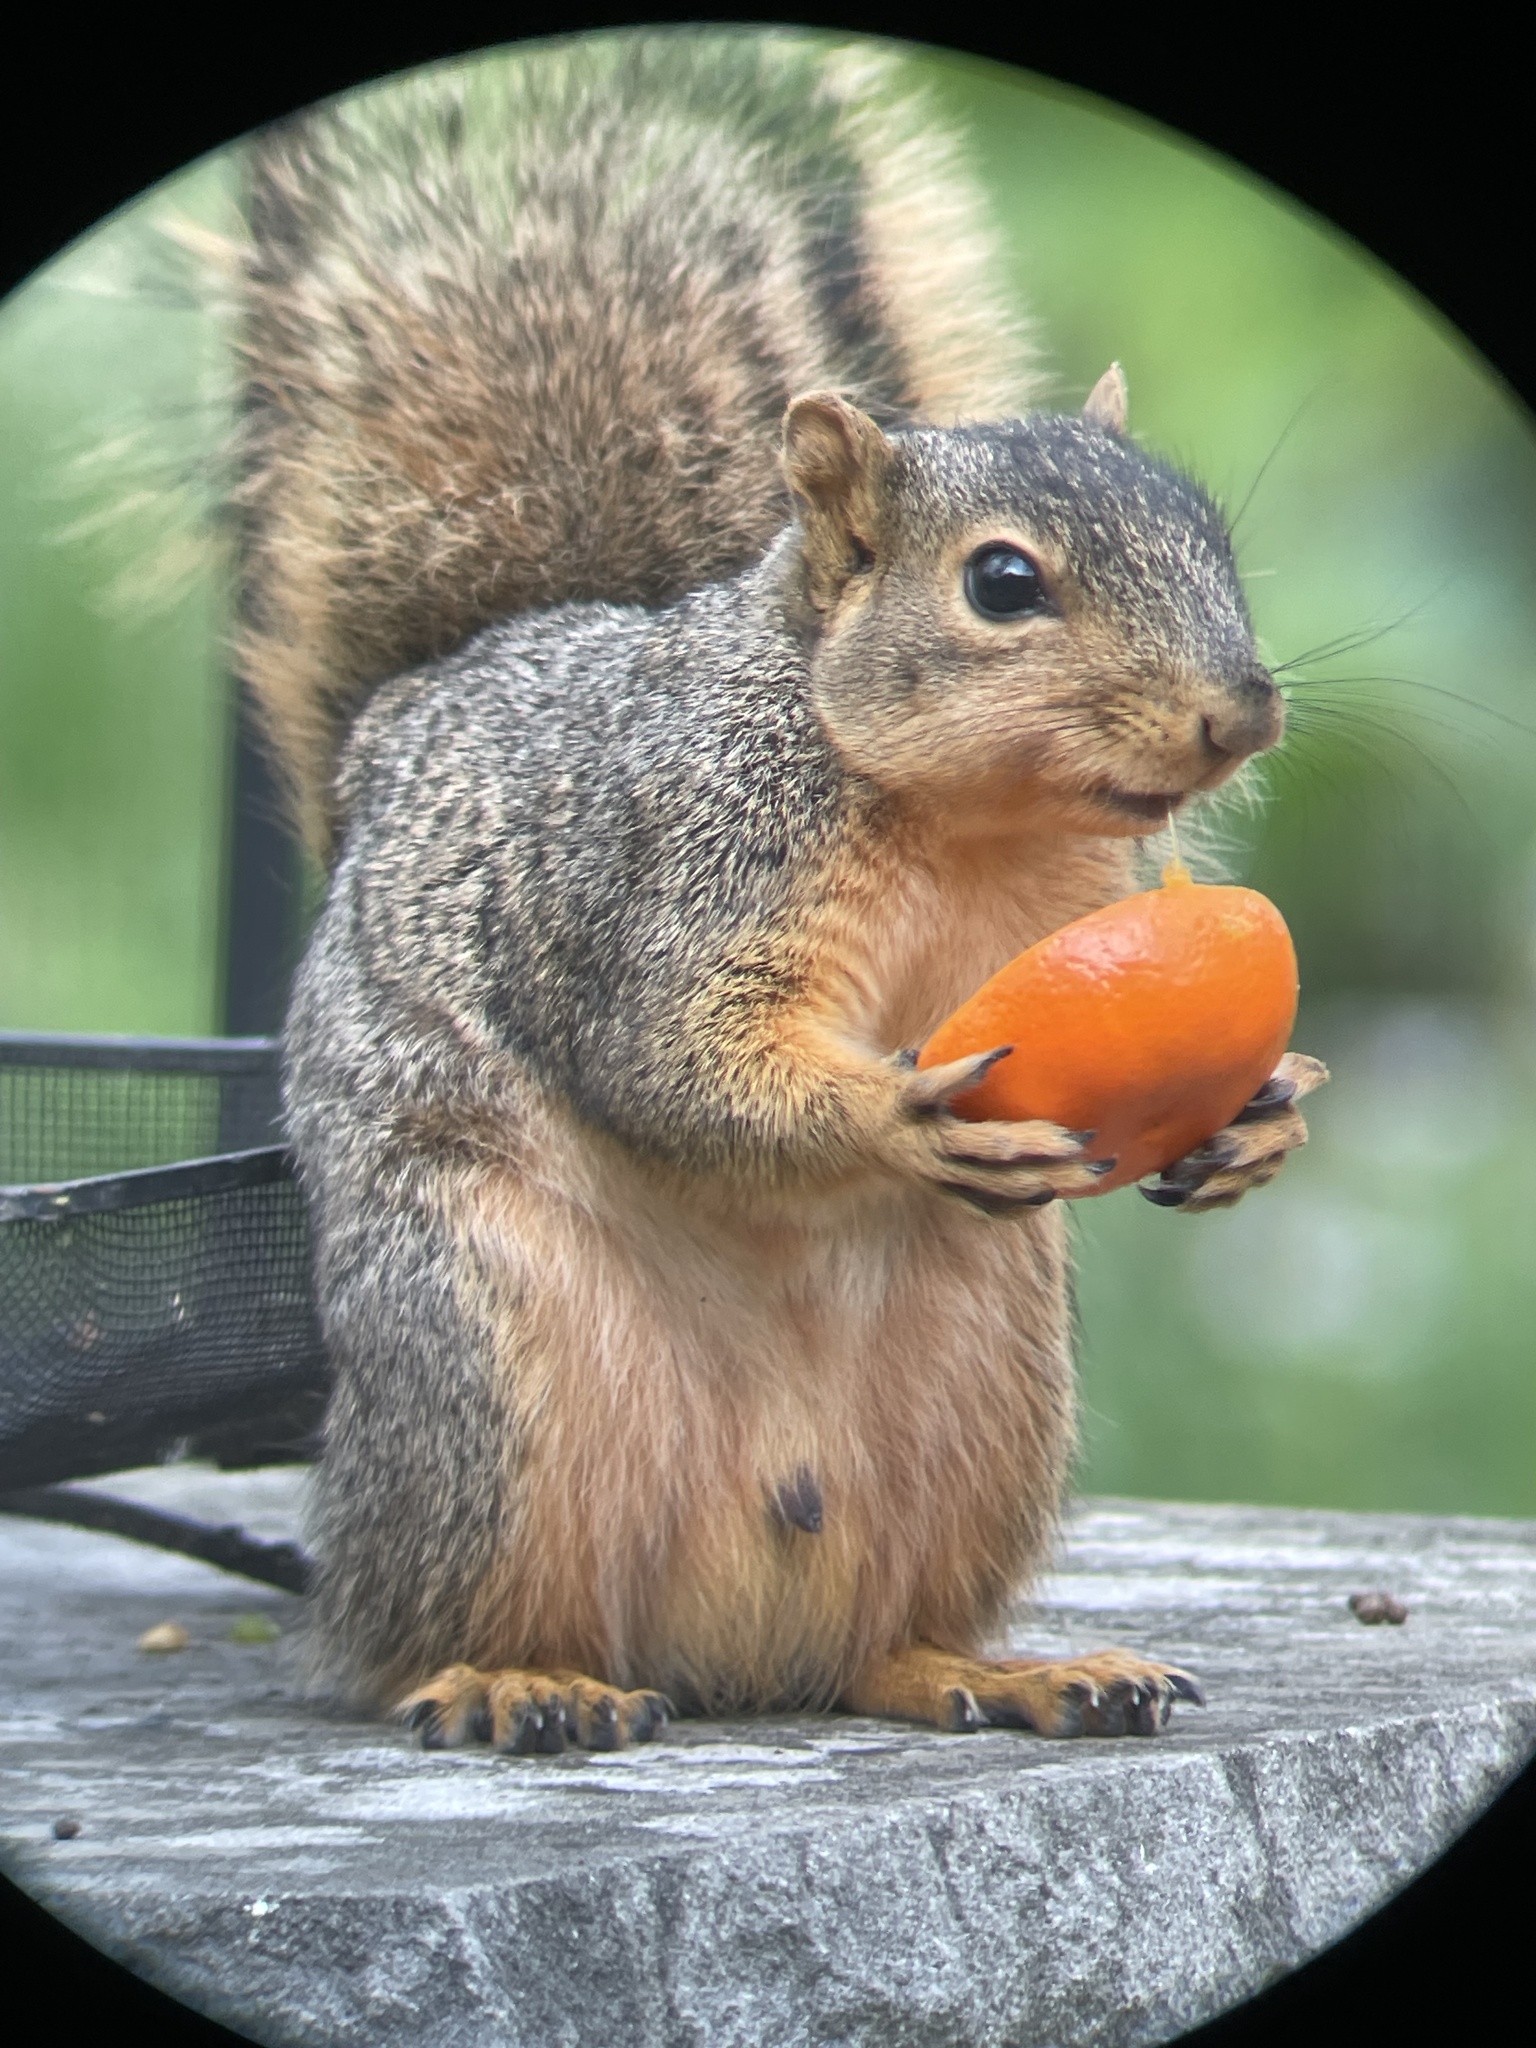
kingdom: Animalia
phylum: Chordata
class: Mammalia
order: Rodentia
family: Sciuridae
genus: Sciurus
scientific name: Sciurus niger
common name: Fox squirrel
